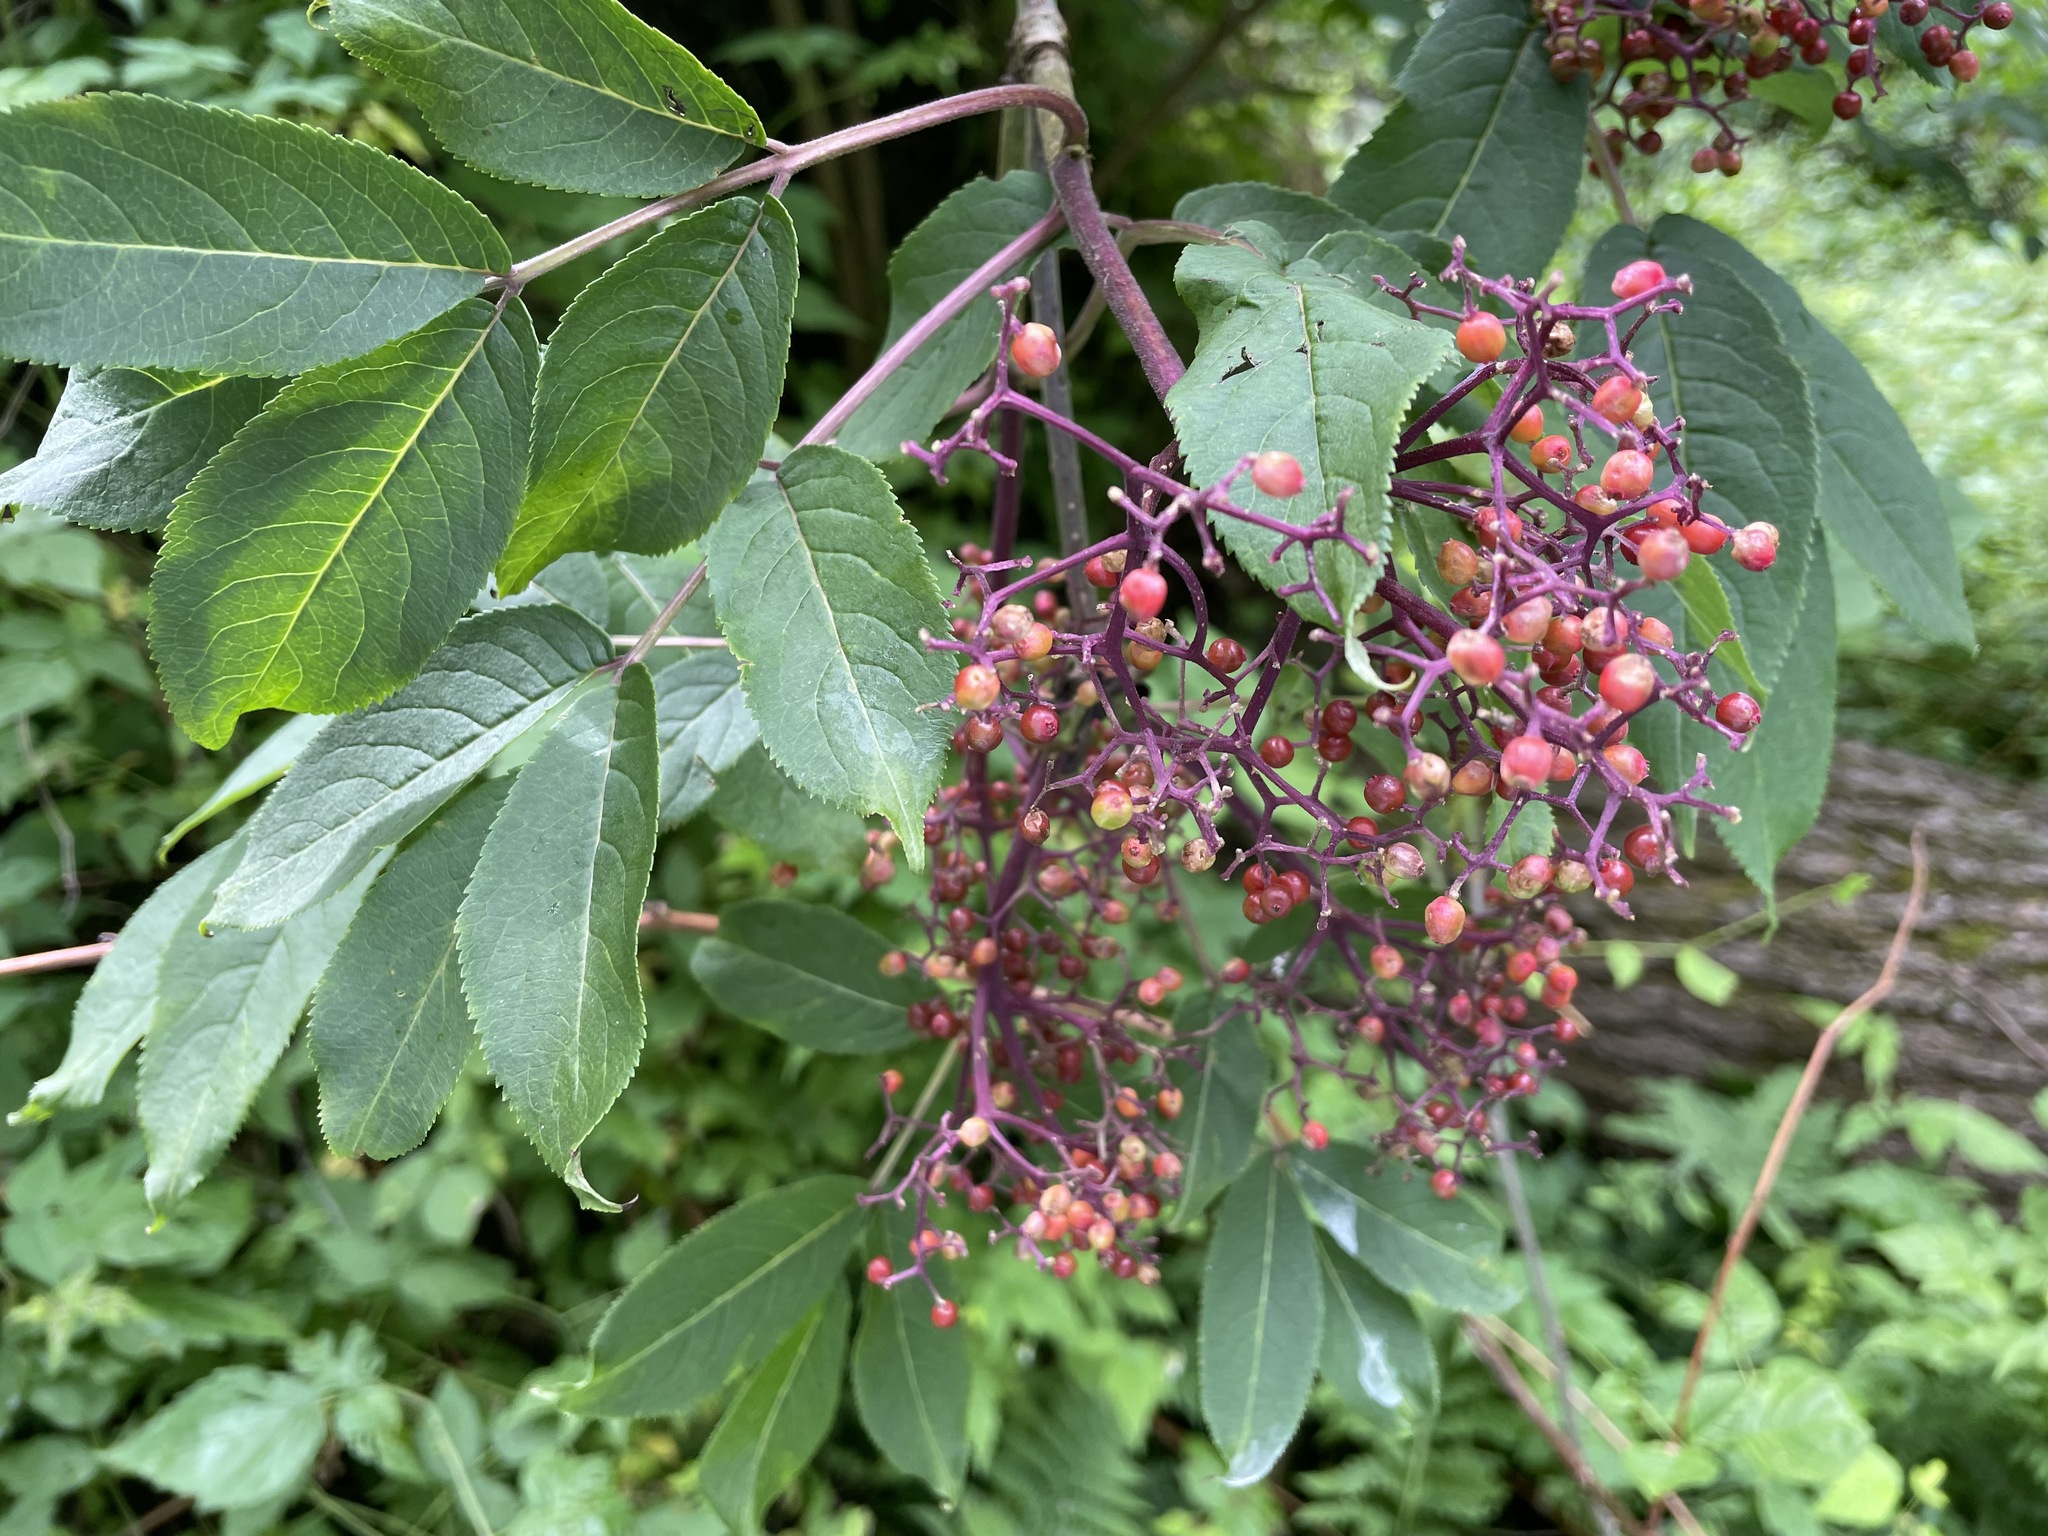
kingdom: Plantae
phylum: Tracheophyta
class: Magnoliopsida
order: Dipsacales
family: Viburnaceae
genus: Sambucus
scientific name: Sambucus racemosa
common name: Red-berried elder
